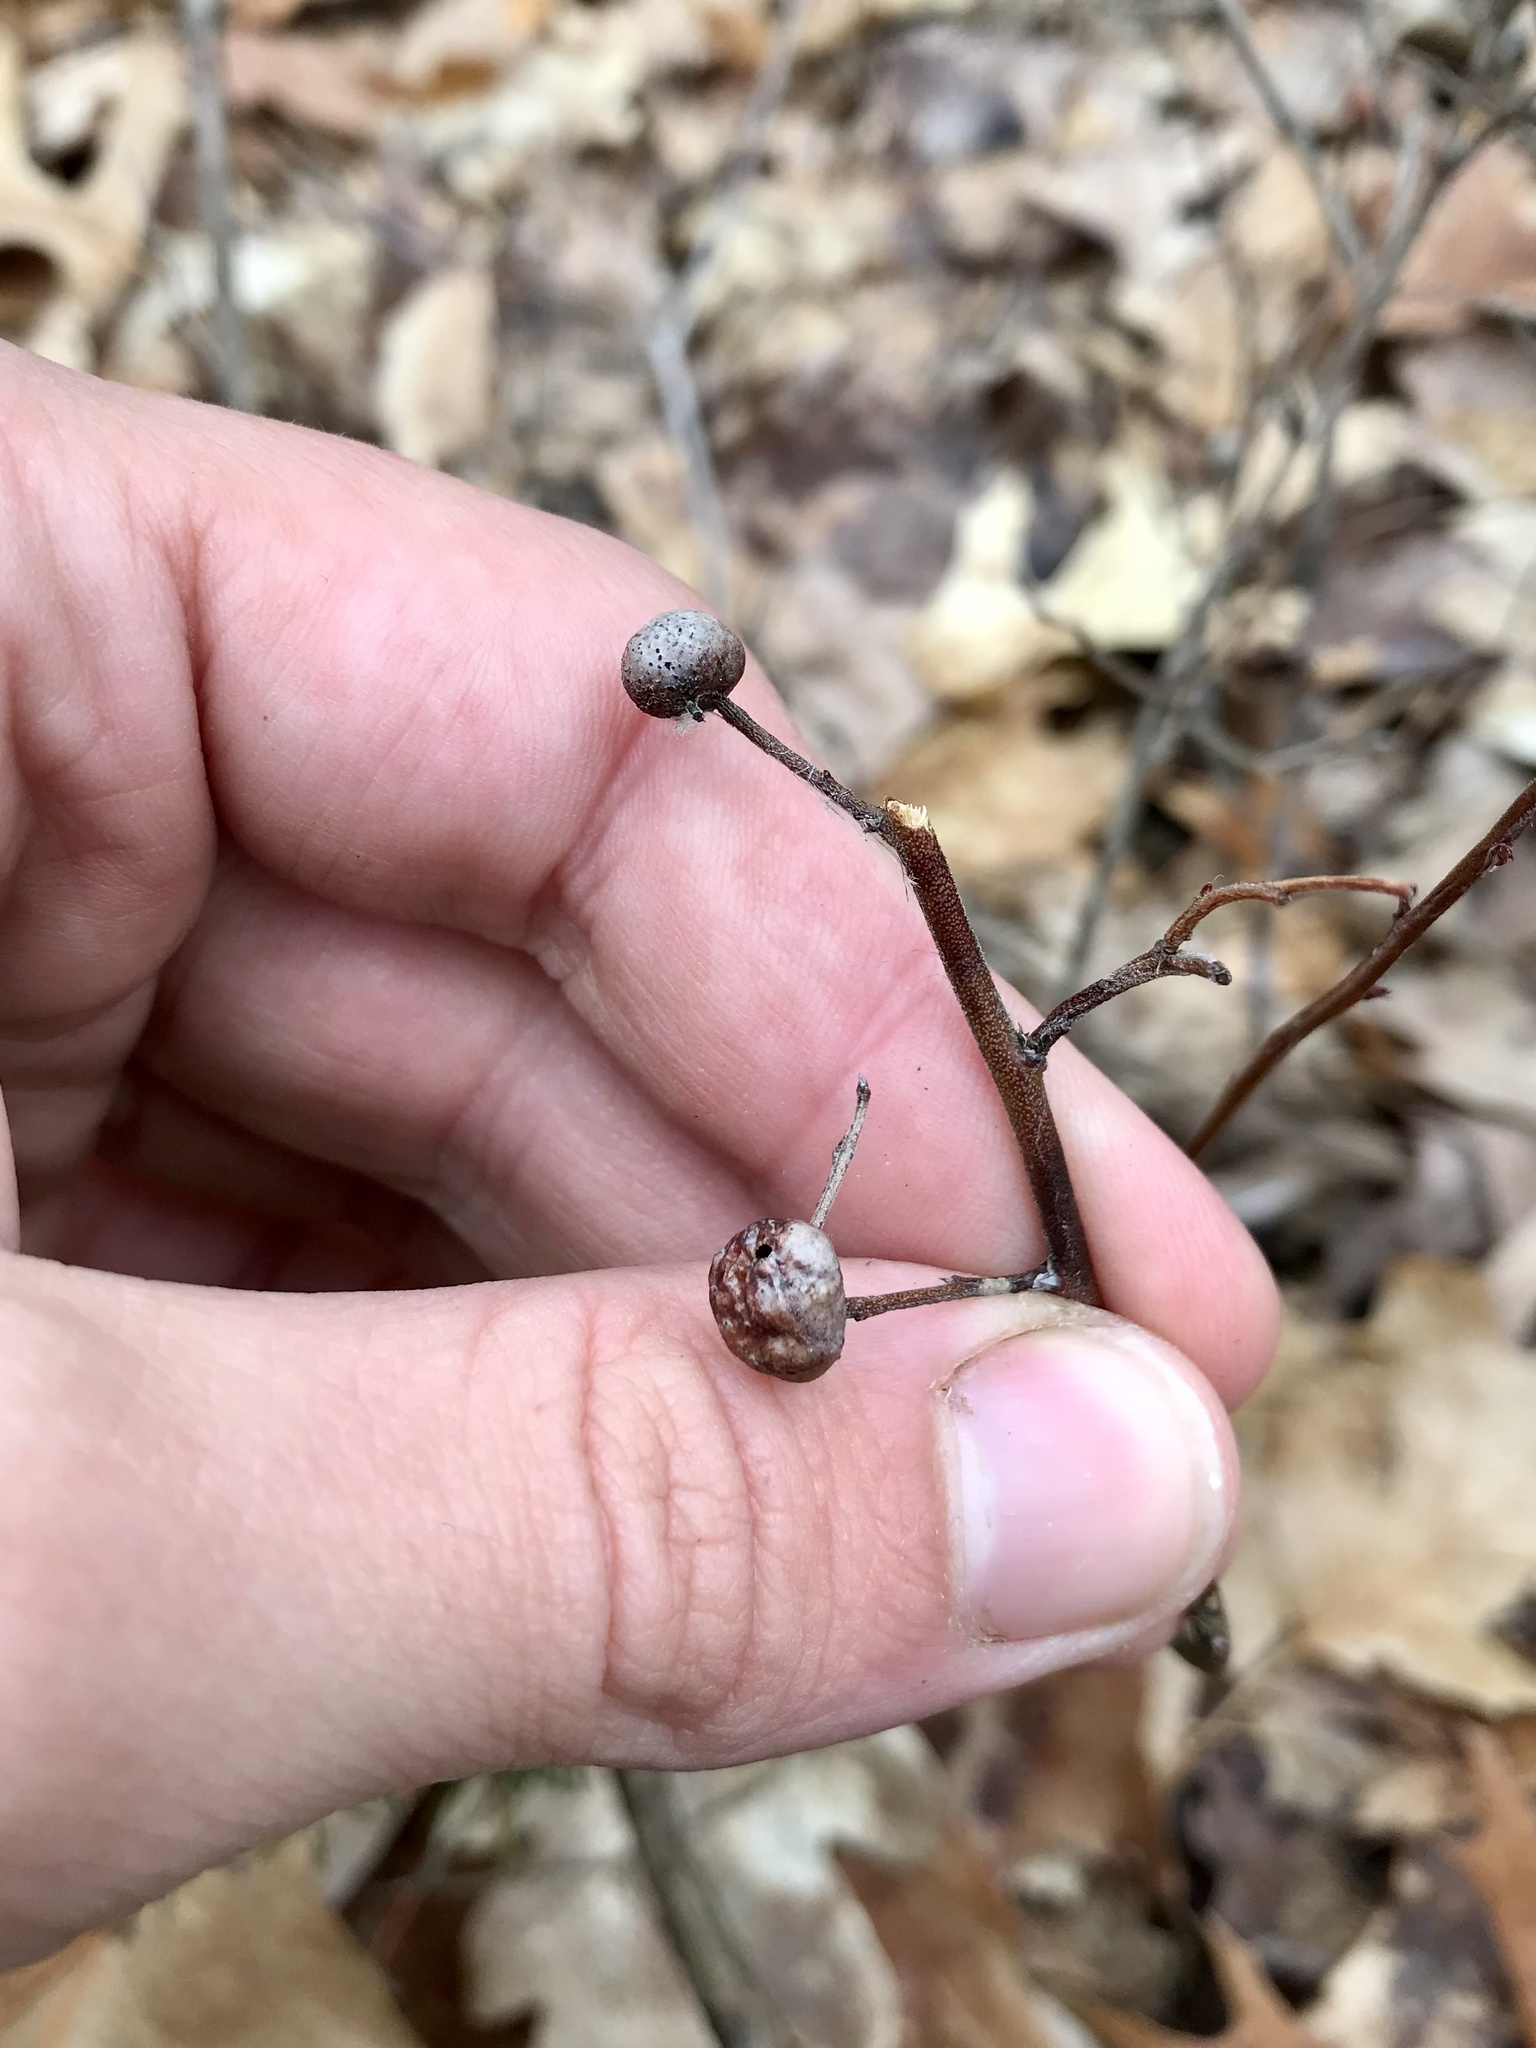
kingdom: Animalia
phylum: Arthropoda
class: Insecta
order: Hymenoptera
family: Pteromalidae
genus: Hemadas
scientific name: Hemadas nubilipennis
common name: Blueberry stem gall wasp
